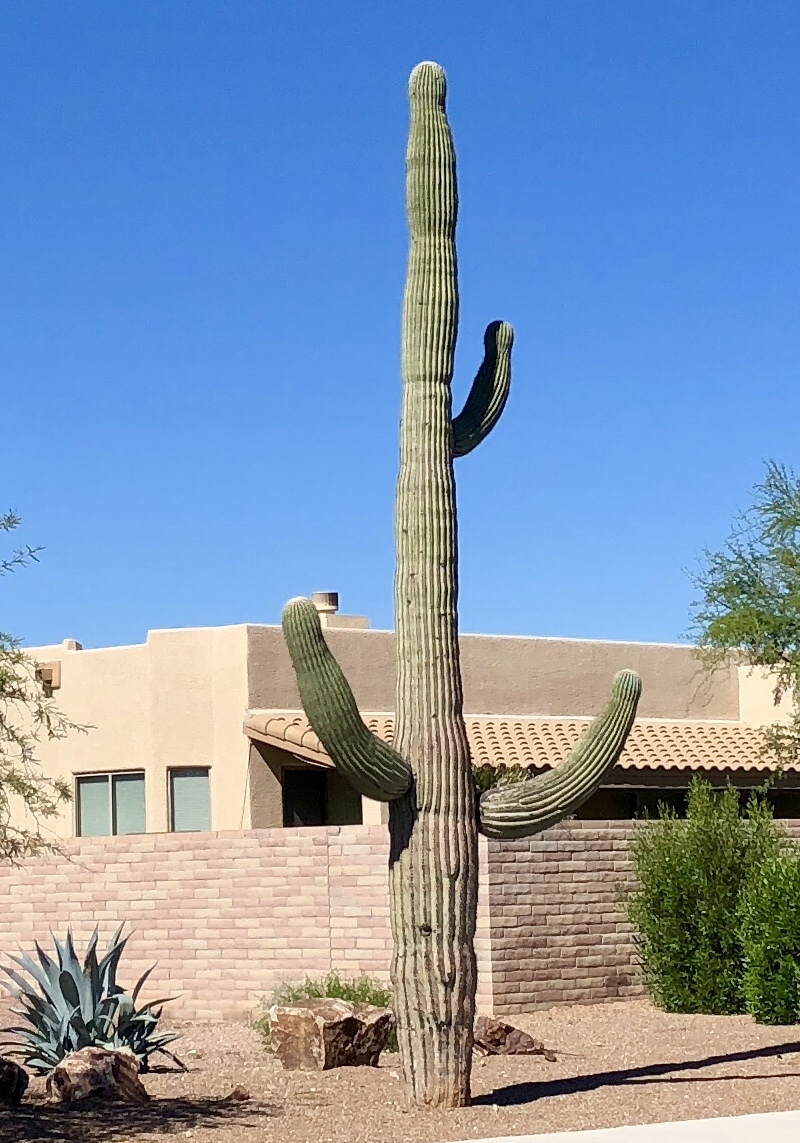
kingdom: Plantae
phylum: Tracheophyta
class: Magnoliopsida
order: Caryophyllales
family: Cactaceae
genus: Carnegiea
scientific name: Carnegiea gigantea
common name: Saguaro
